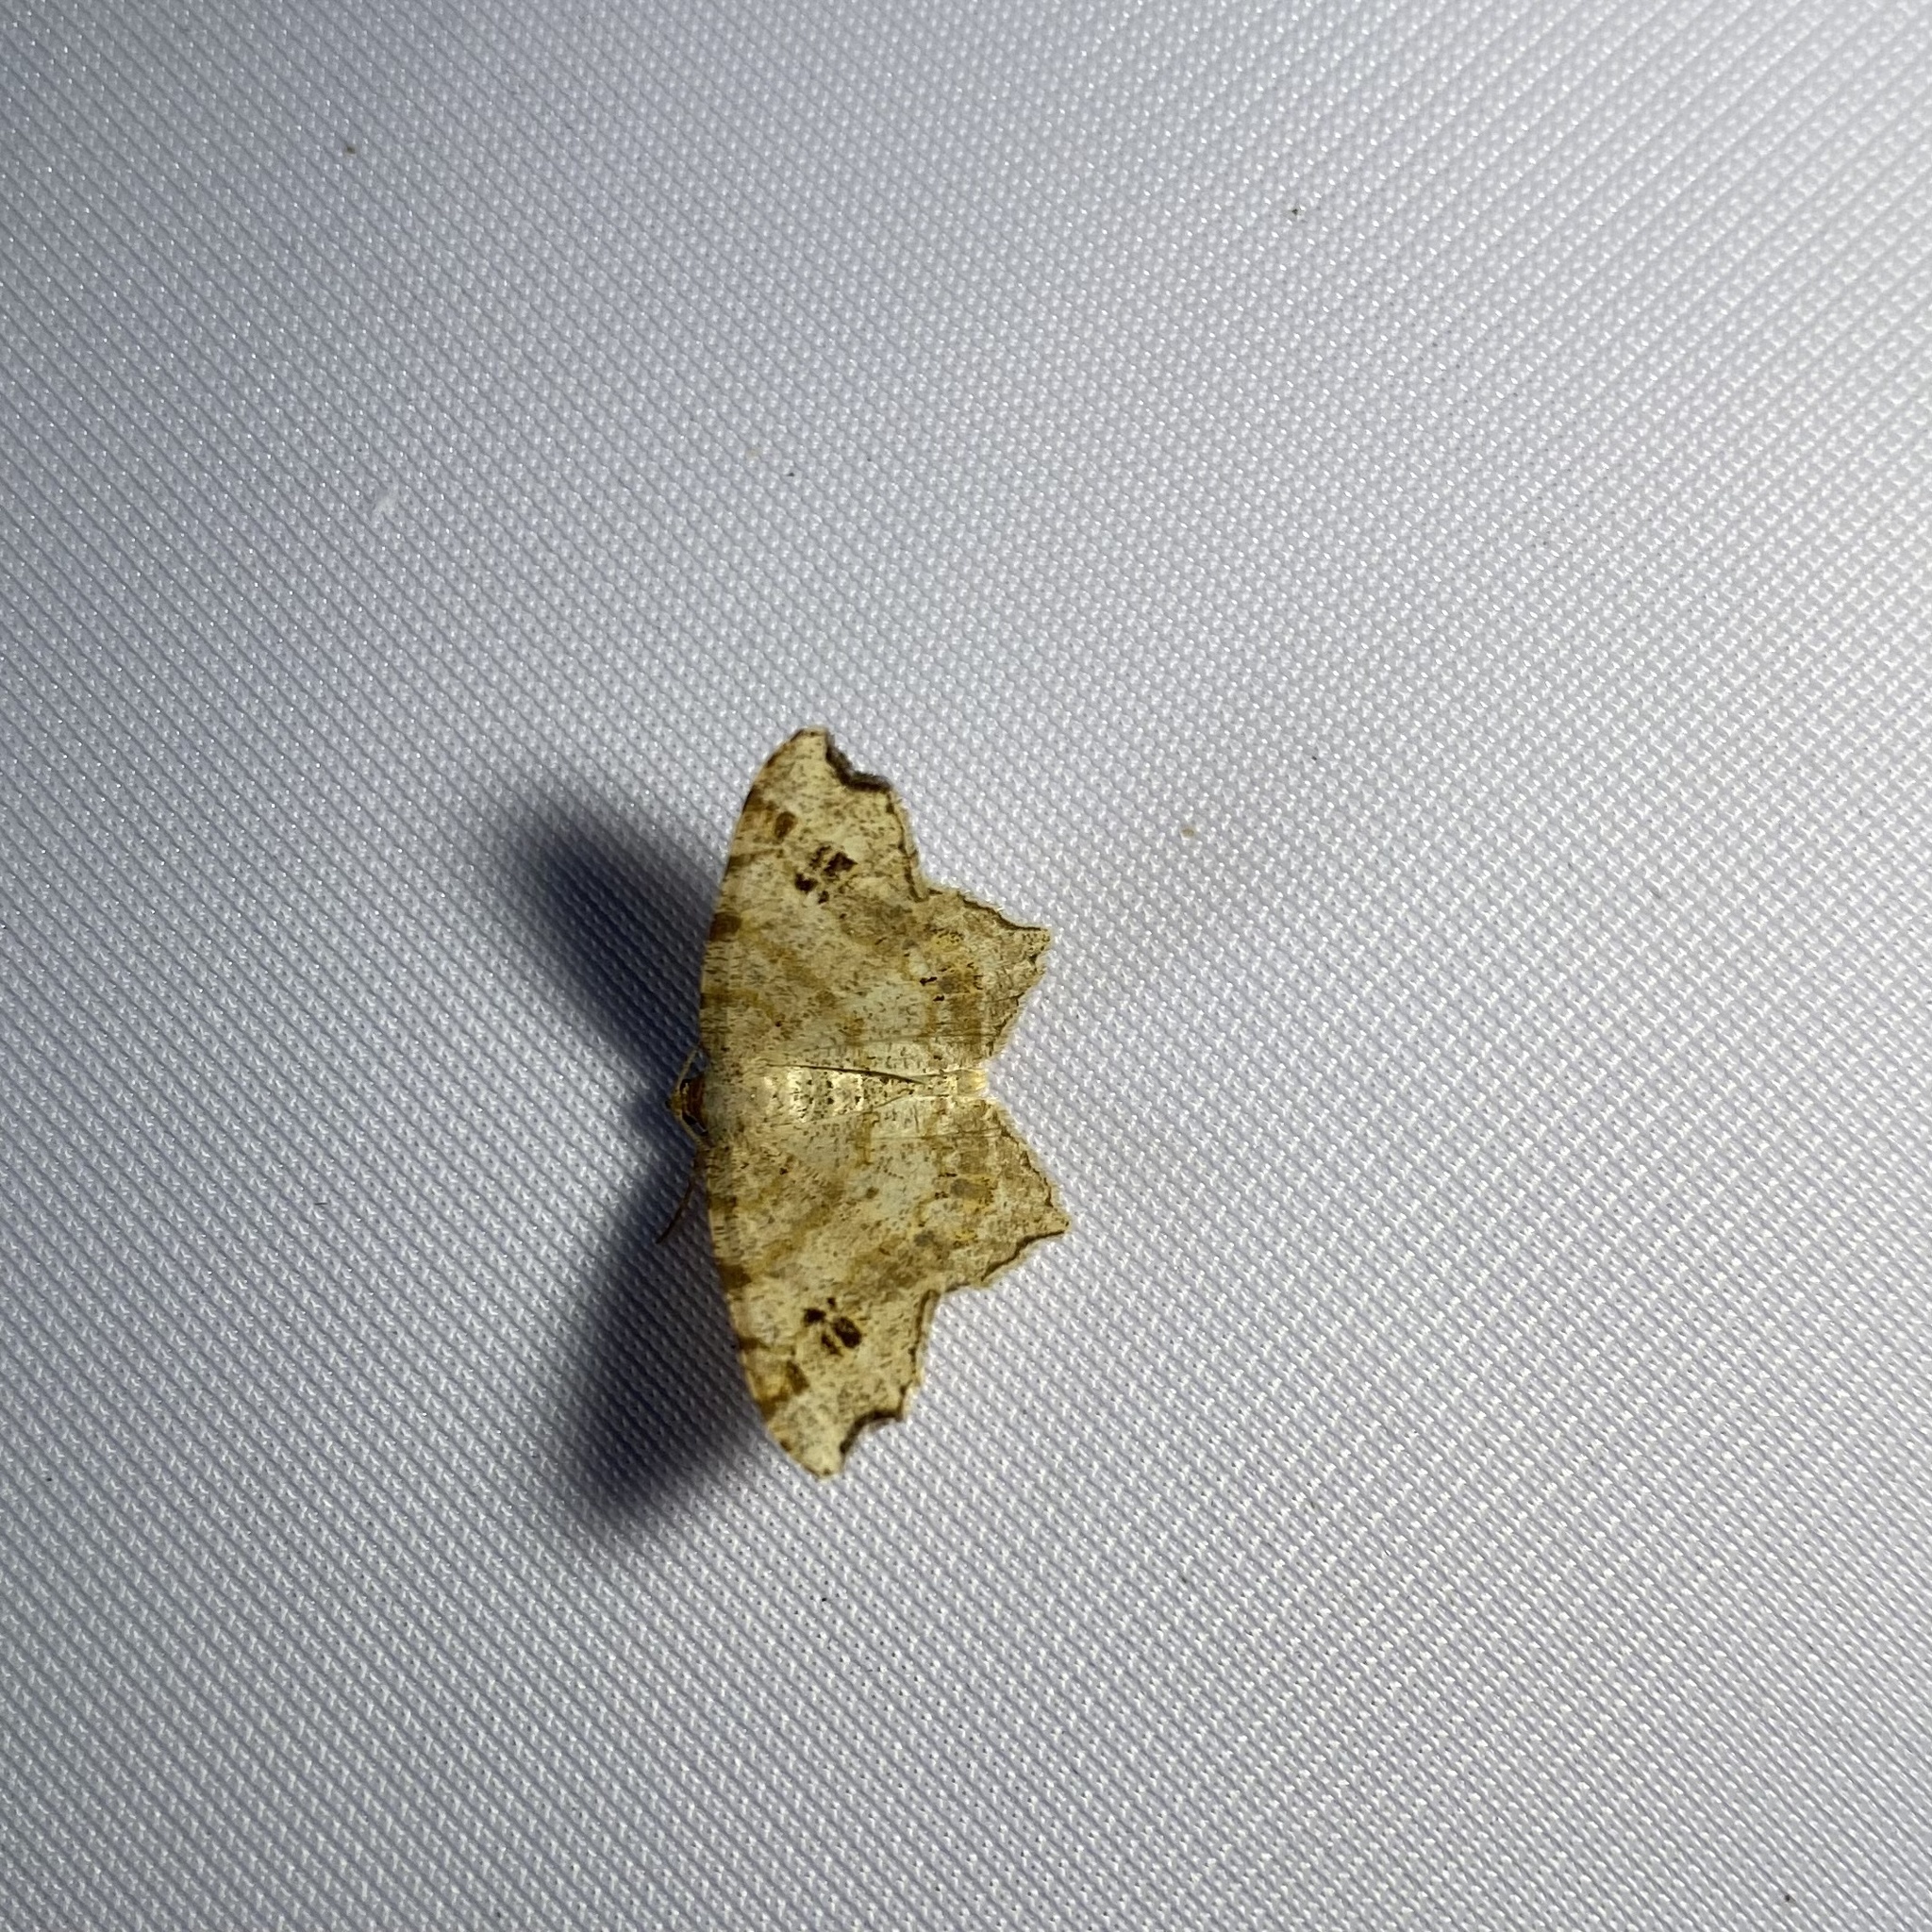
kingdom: Animalia
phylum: Arthropoda
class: Insecta
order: Lepidoptera
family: Geometridae
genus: Macaria
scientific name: Macaria aemulataria
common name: Common angle
